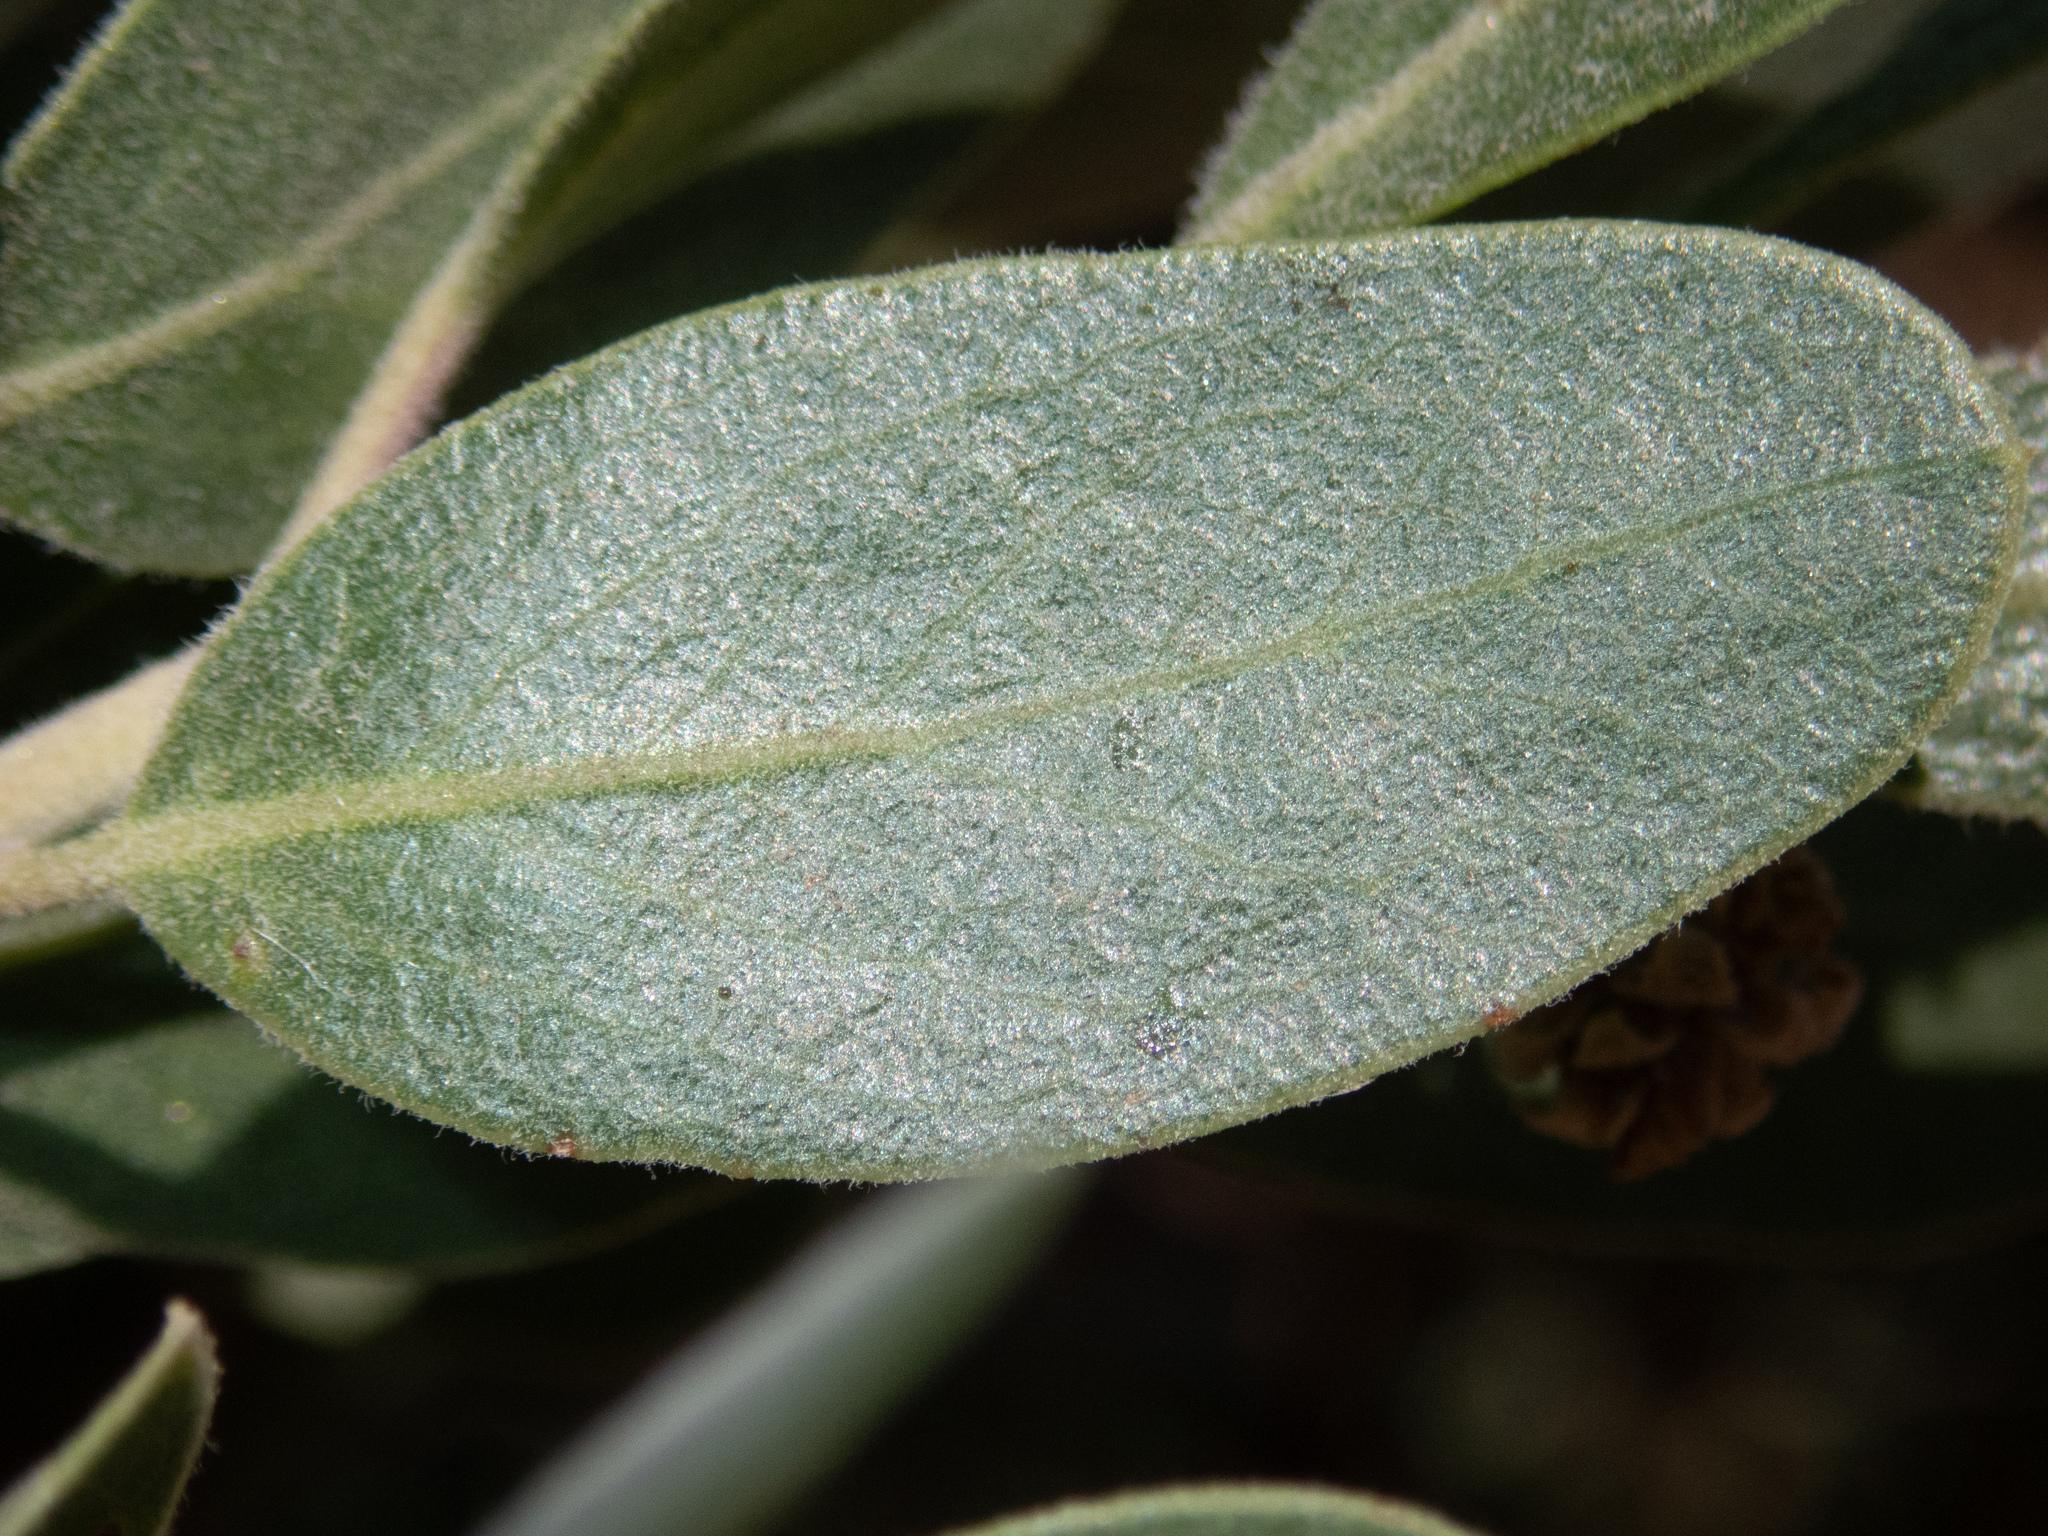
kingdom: Plantae
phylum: Tracheophyta
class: Magnoliopsida
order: Ericales
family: Ericaceae
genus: Arctostaphylos
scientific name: Arctostaphylos pungens
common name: Mexican manzanita
